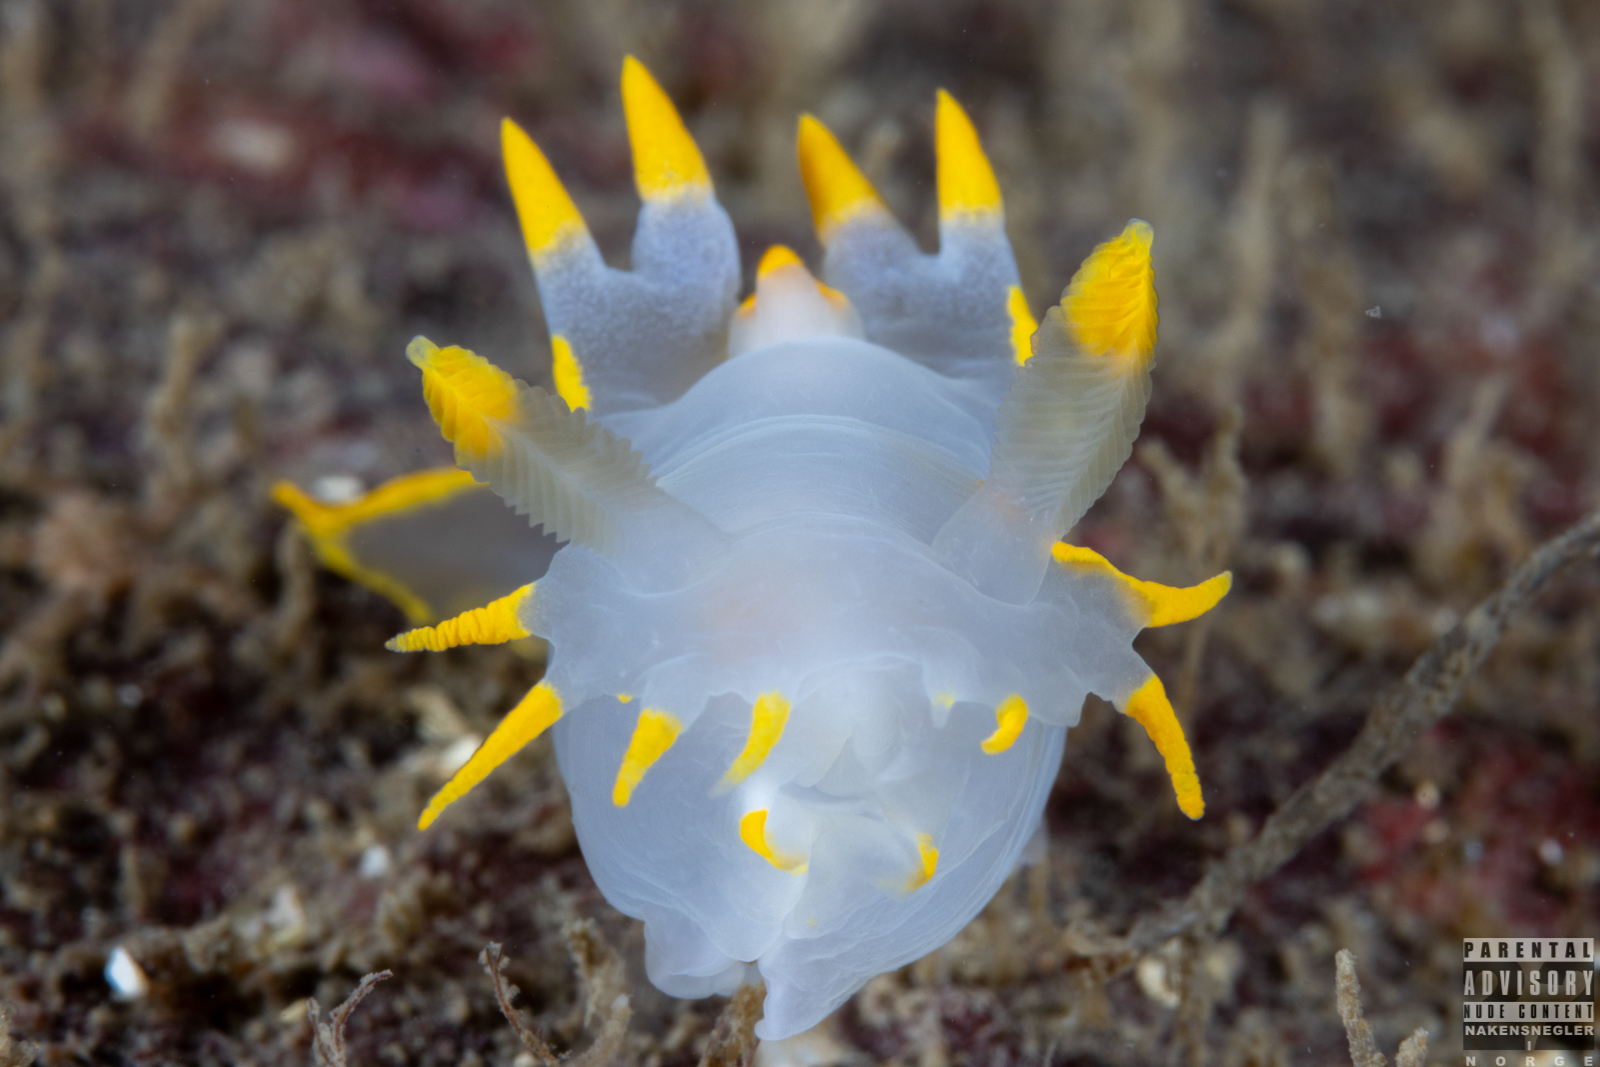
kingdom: Animalia
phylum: Mollusca
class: Gastropoda
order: Nudibranchia
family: Polyceridae
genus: Polycera
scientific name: Polycera faeroensis
